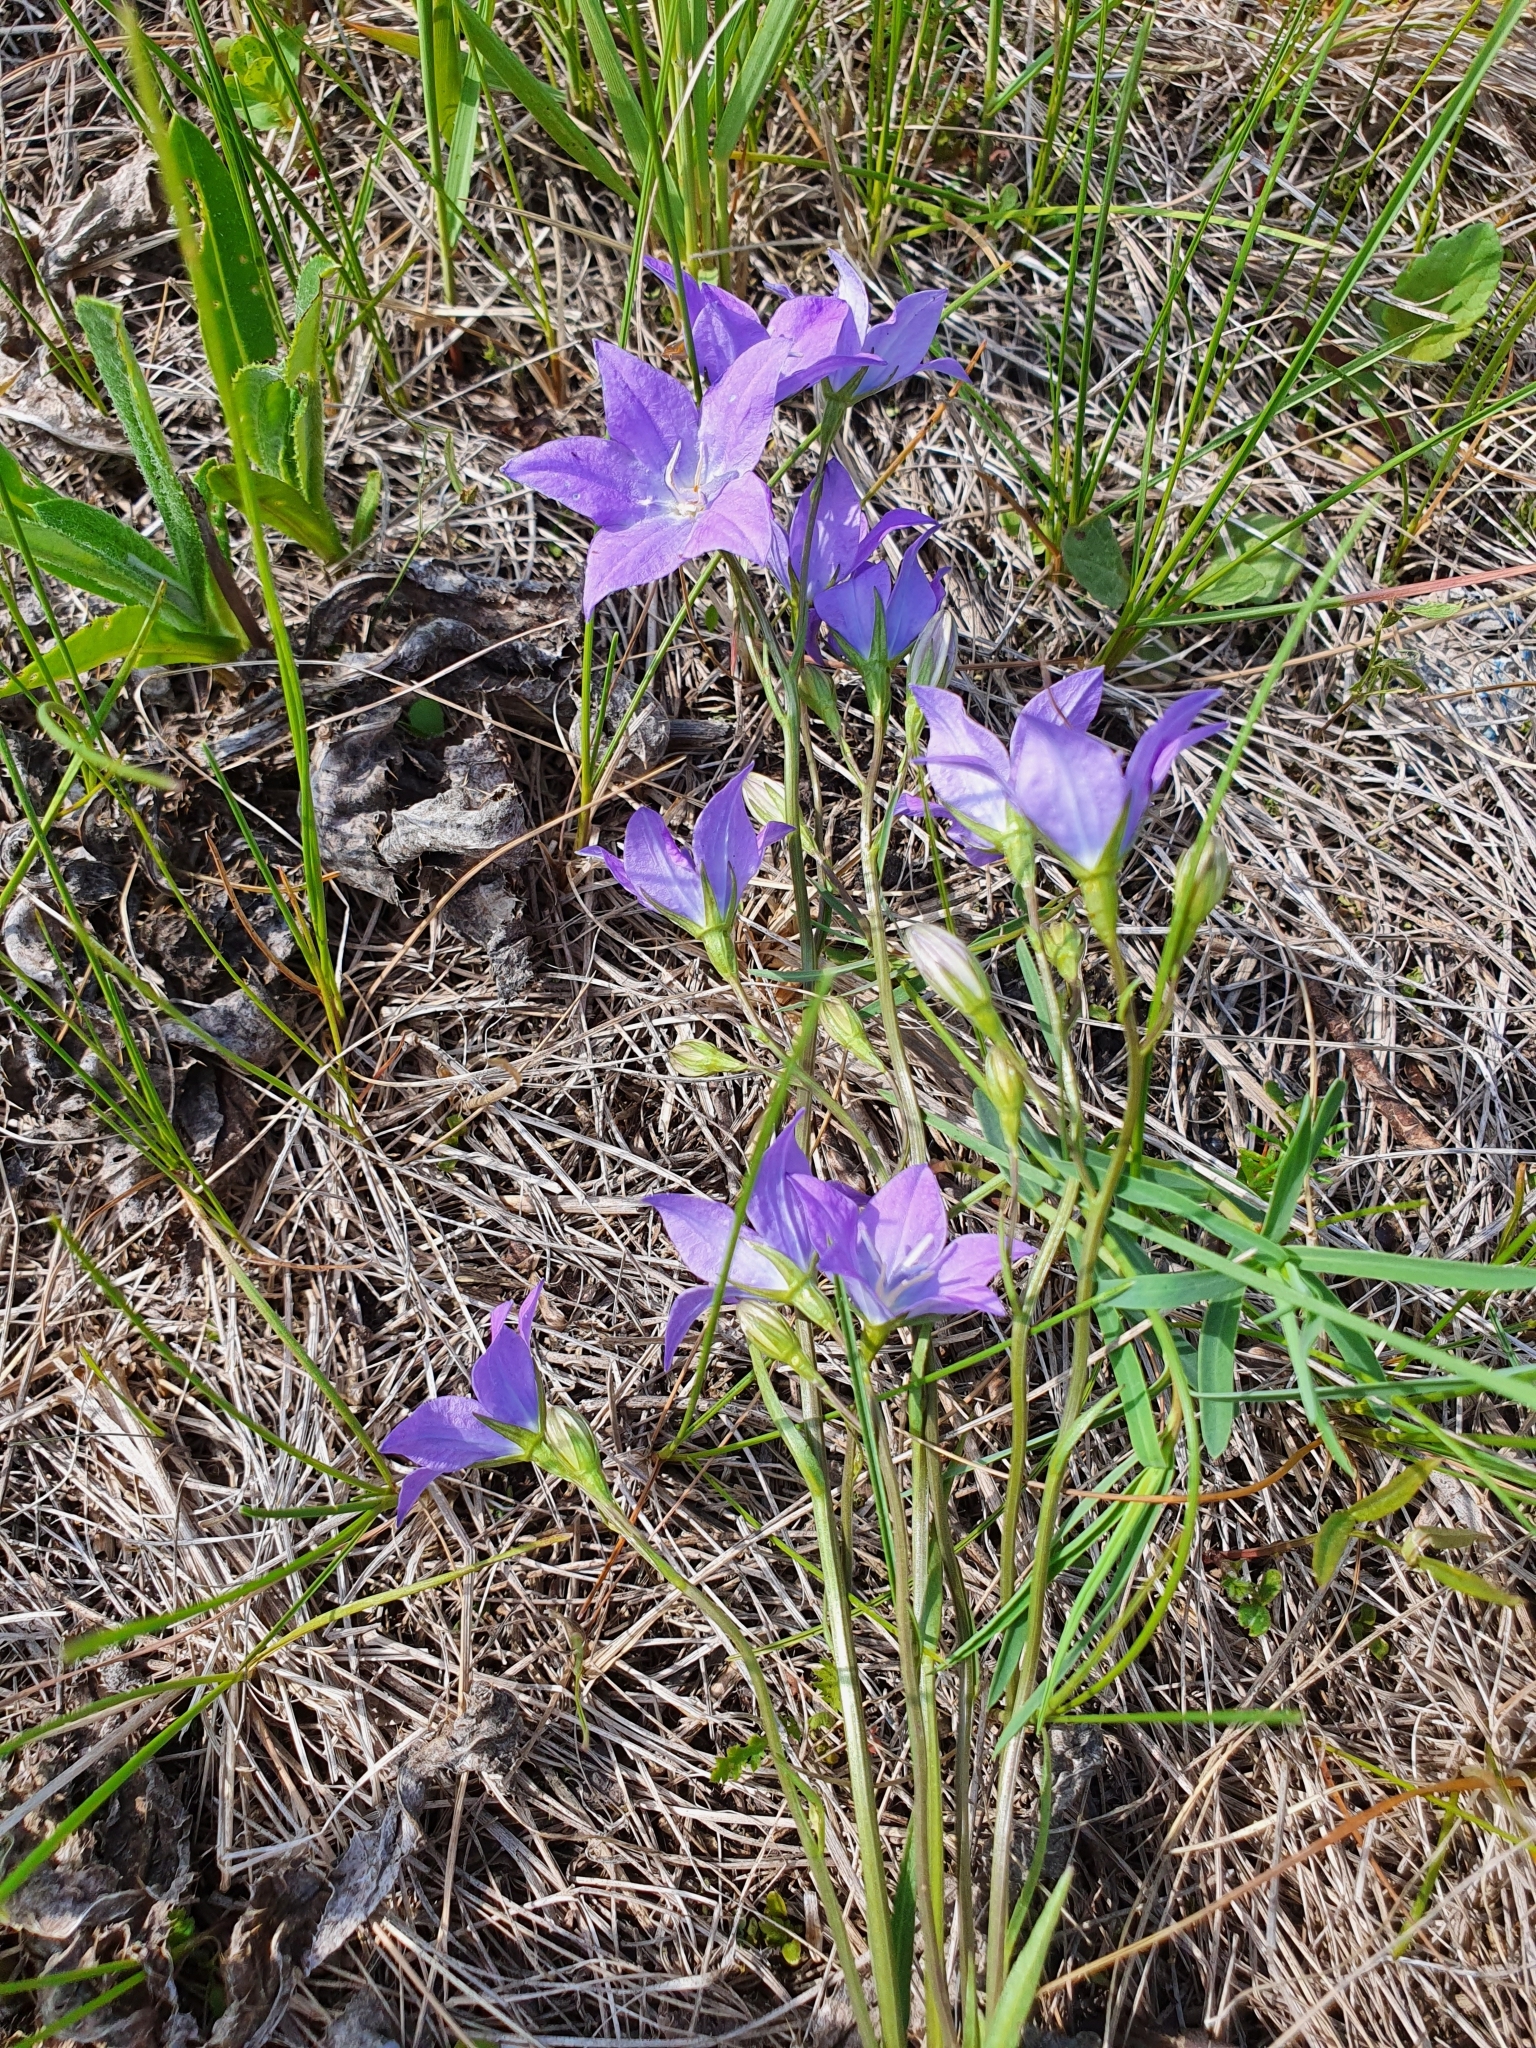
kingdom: Plantae
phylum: Tracheophyta
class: Magnoliopsida
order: Asterales
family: Campanulaceae
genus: Campanula
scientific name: Campanula stevenii
